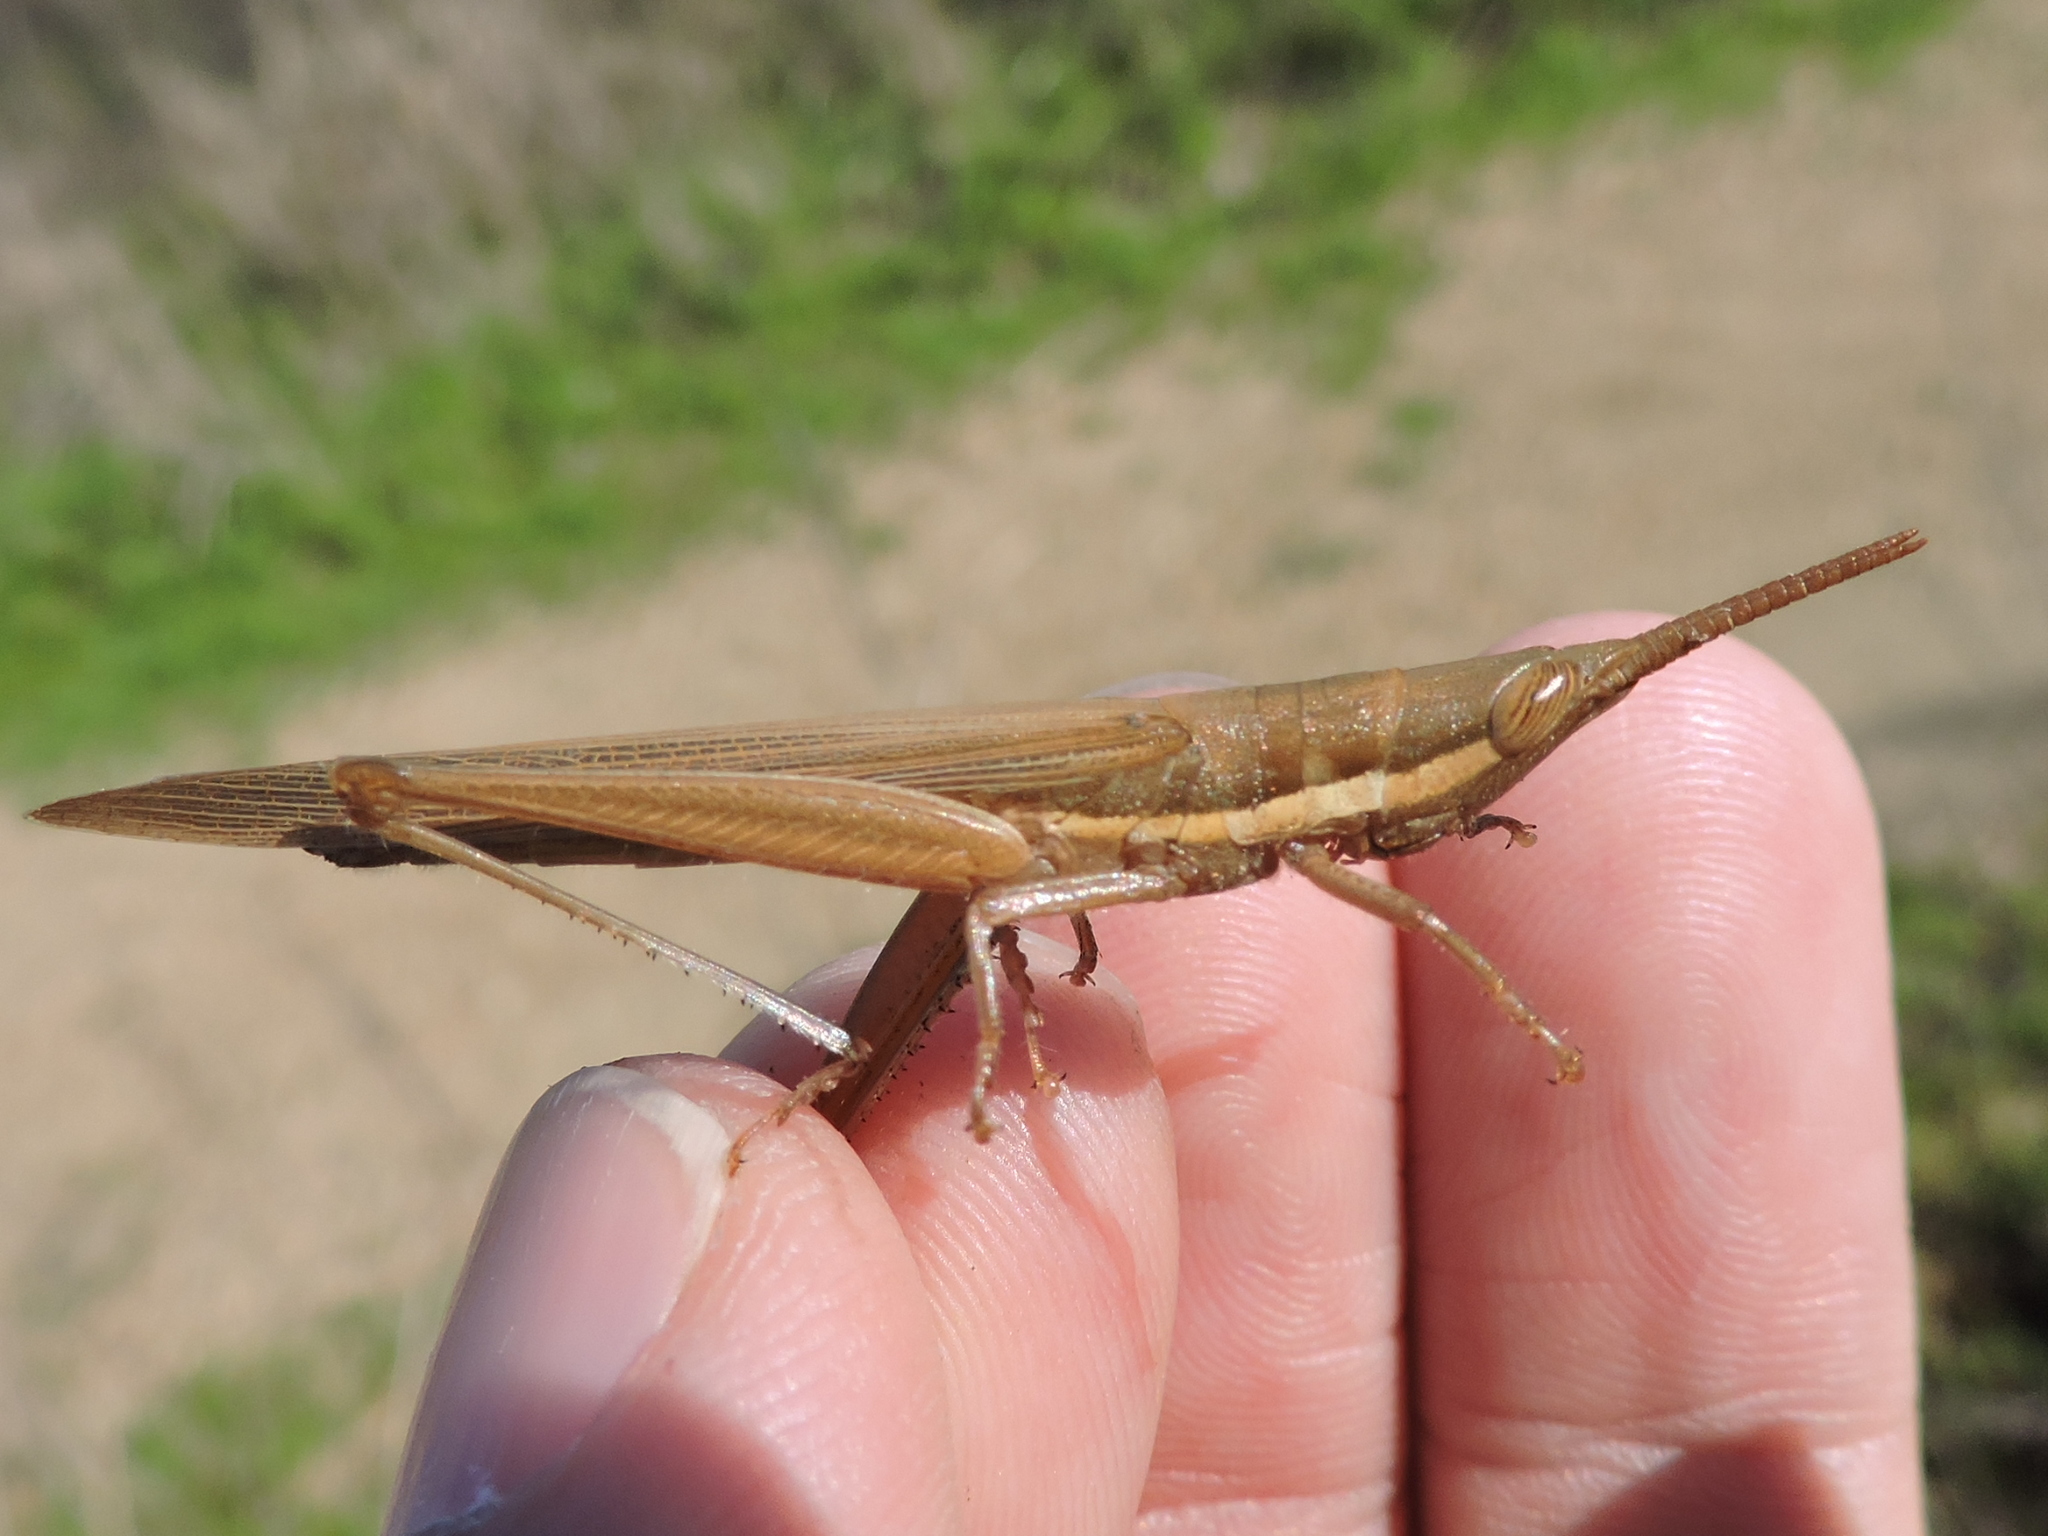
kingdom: Animalia
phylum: Arthropoda
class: Insecta
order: Orthoptera
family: Acrididae
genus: Leptysma
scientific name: Leptysma marginicollis
